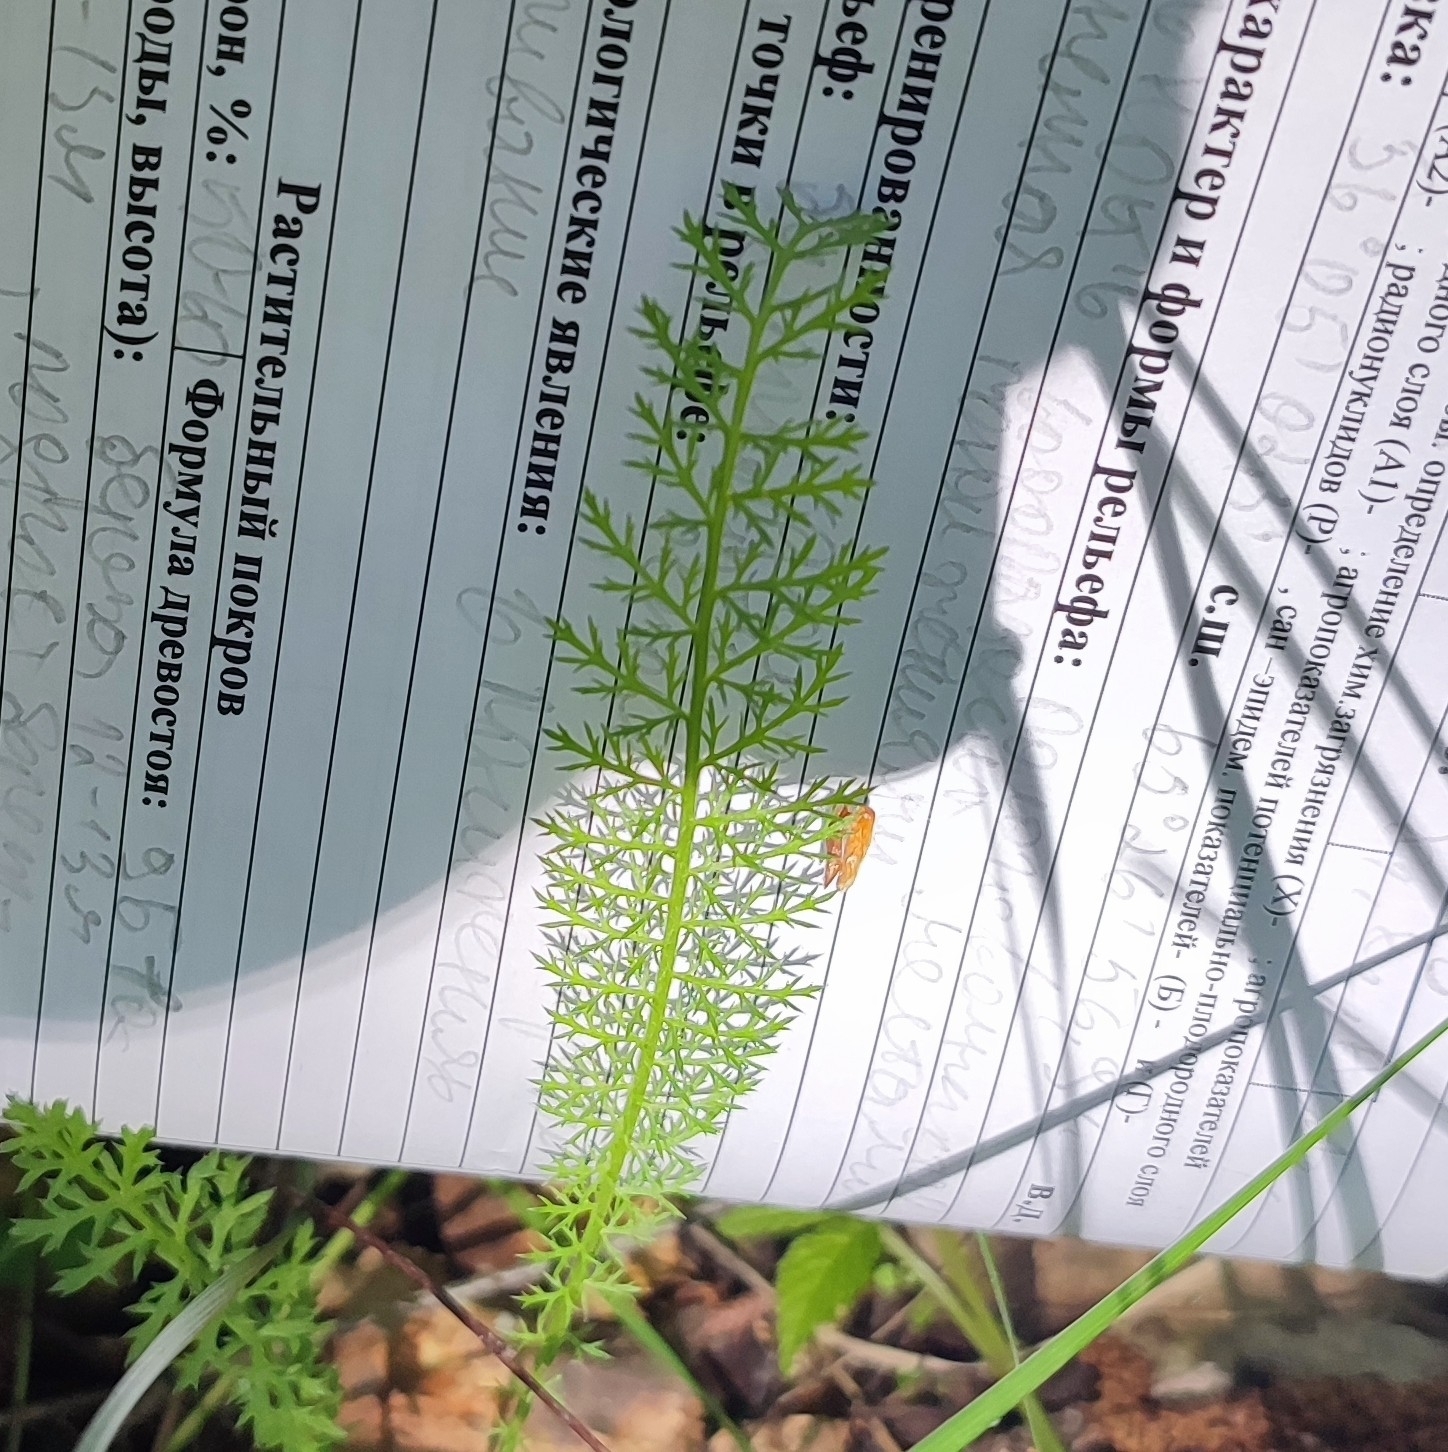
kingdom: Plantae
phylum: Tracheophyta
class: Magnoliopsida
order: Asterales
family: Asteraceae
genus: Achillea
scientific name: Achillea asiatica
